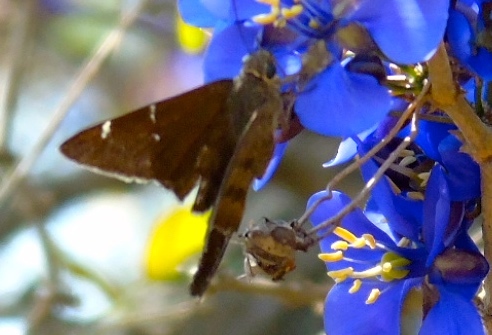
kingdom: Animalia
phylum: Arthropoda
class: Insecta
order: Lepidoptera
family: Hesperiidae
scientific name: Hesperiidae
